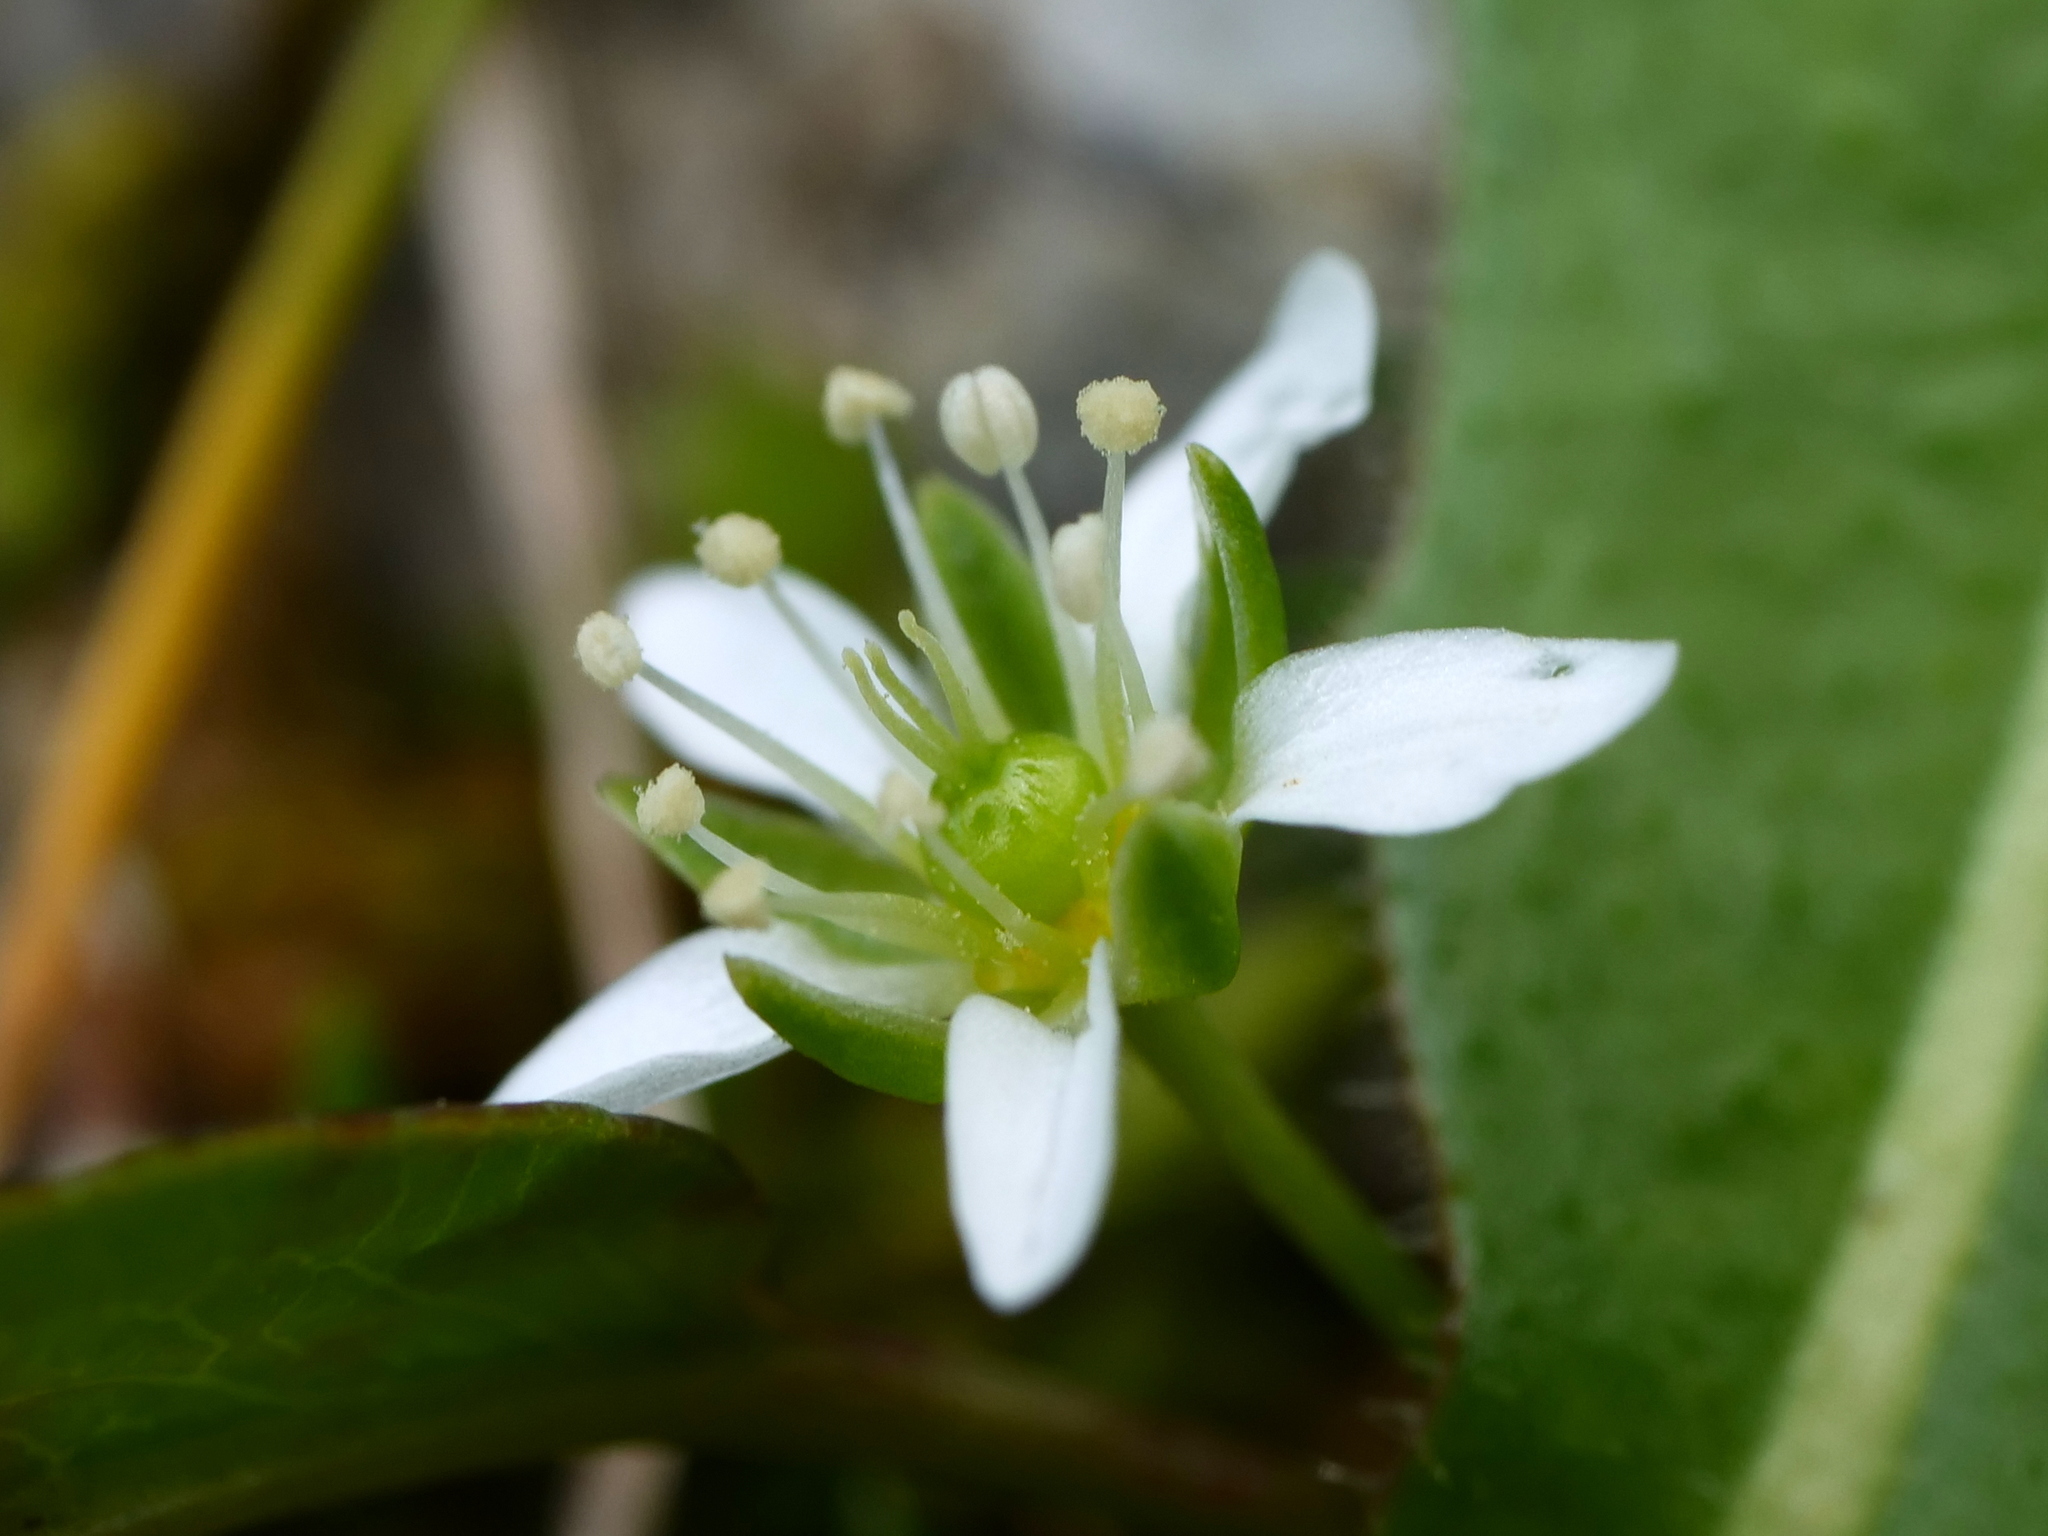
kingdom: Plantae
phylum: Tracheophyta
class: Magnoliopsida
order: Caryophyllales
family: Caryophyllaceae
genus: Moehringia
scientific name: Moehringia ciliata
